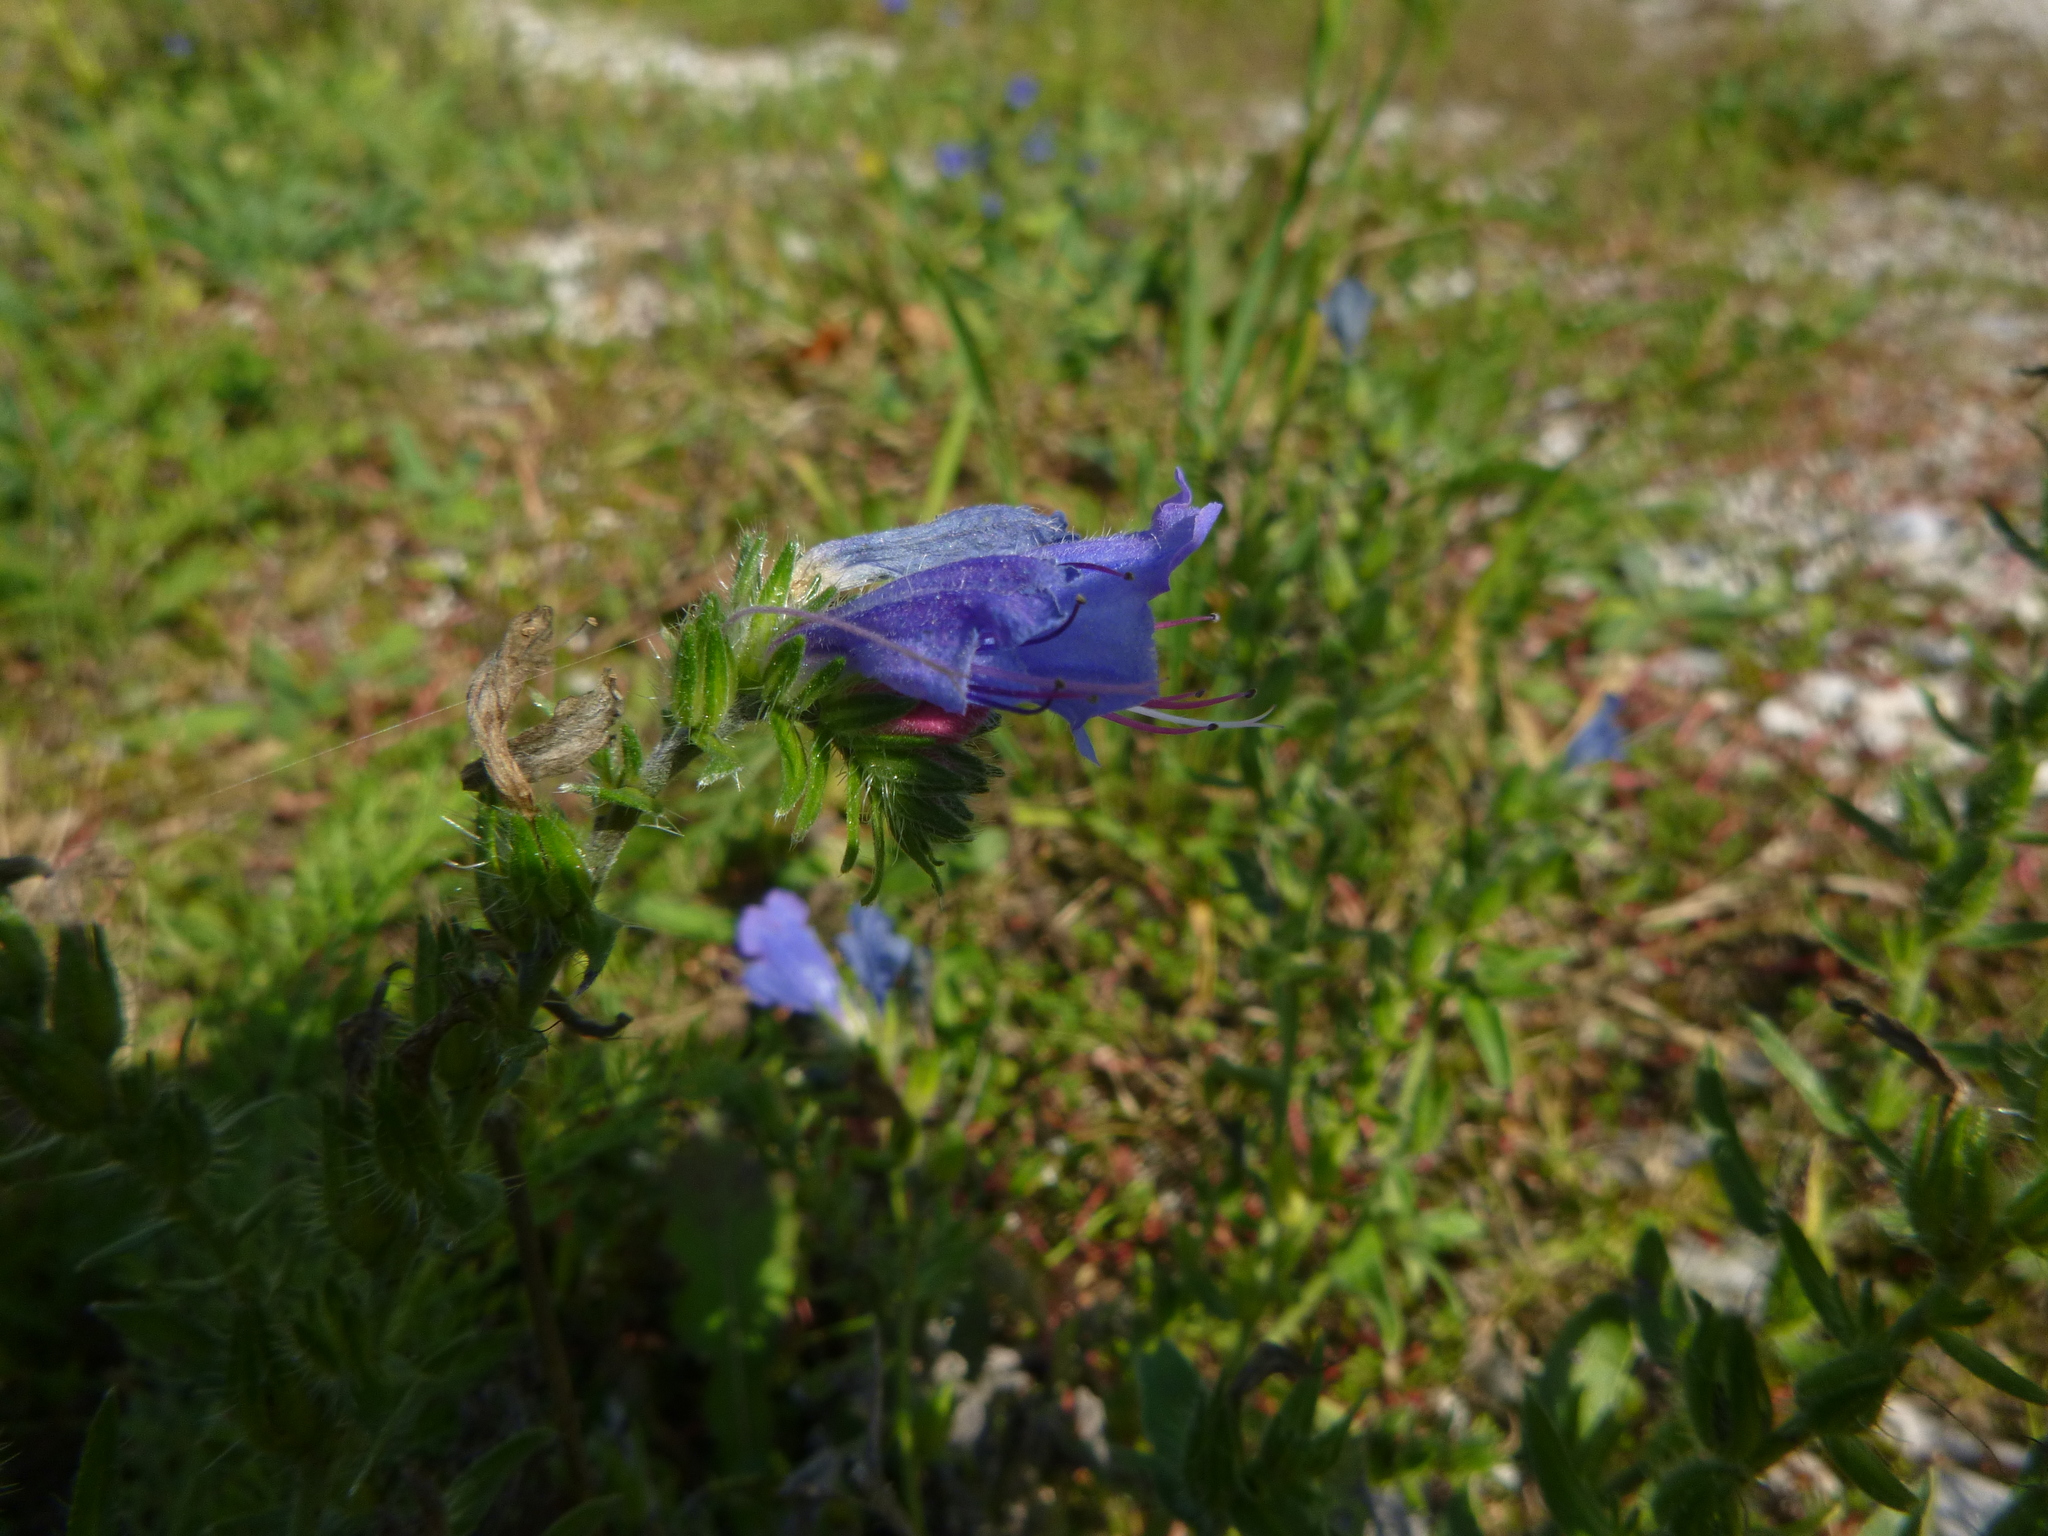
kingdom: Plantae
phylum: Tracheophyta
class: Magnoliopsida
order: Boraginales
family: Boraginaceae
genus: Echium
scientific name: Echium vulgare
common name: Common viper's bugloss
